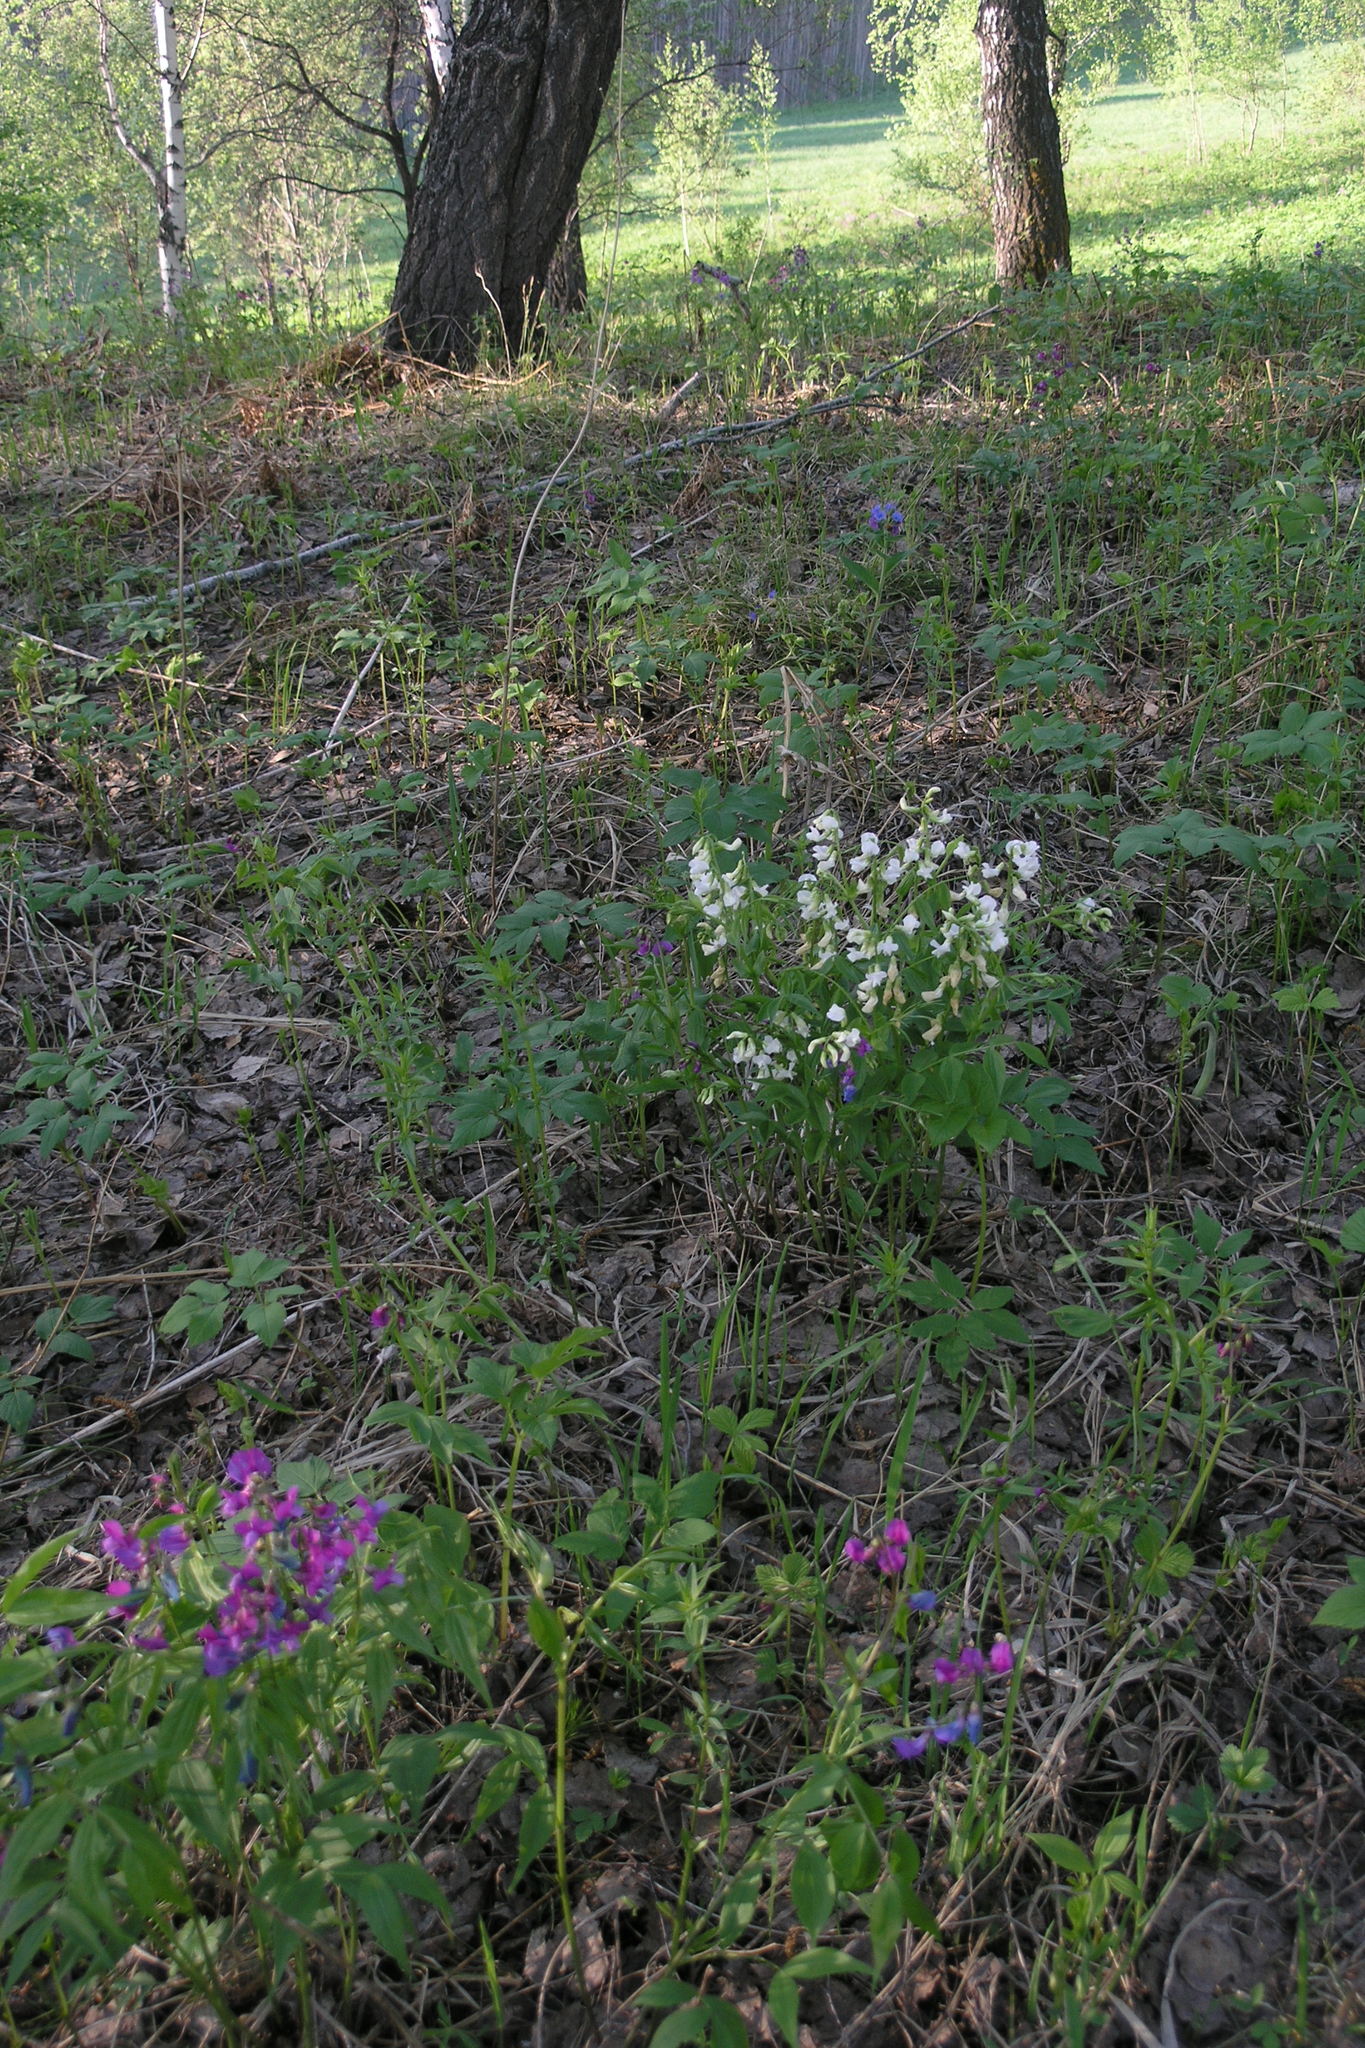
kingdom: Plantae
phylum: Tracheophyta
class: Magnoliopsida
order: Fabales
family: Fabaceae
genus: Lathyrus
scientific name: Lathyrus vernus
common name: Spring pea
